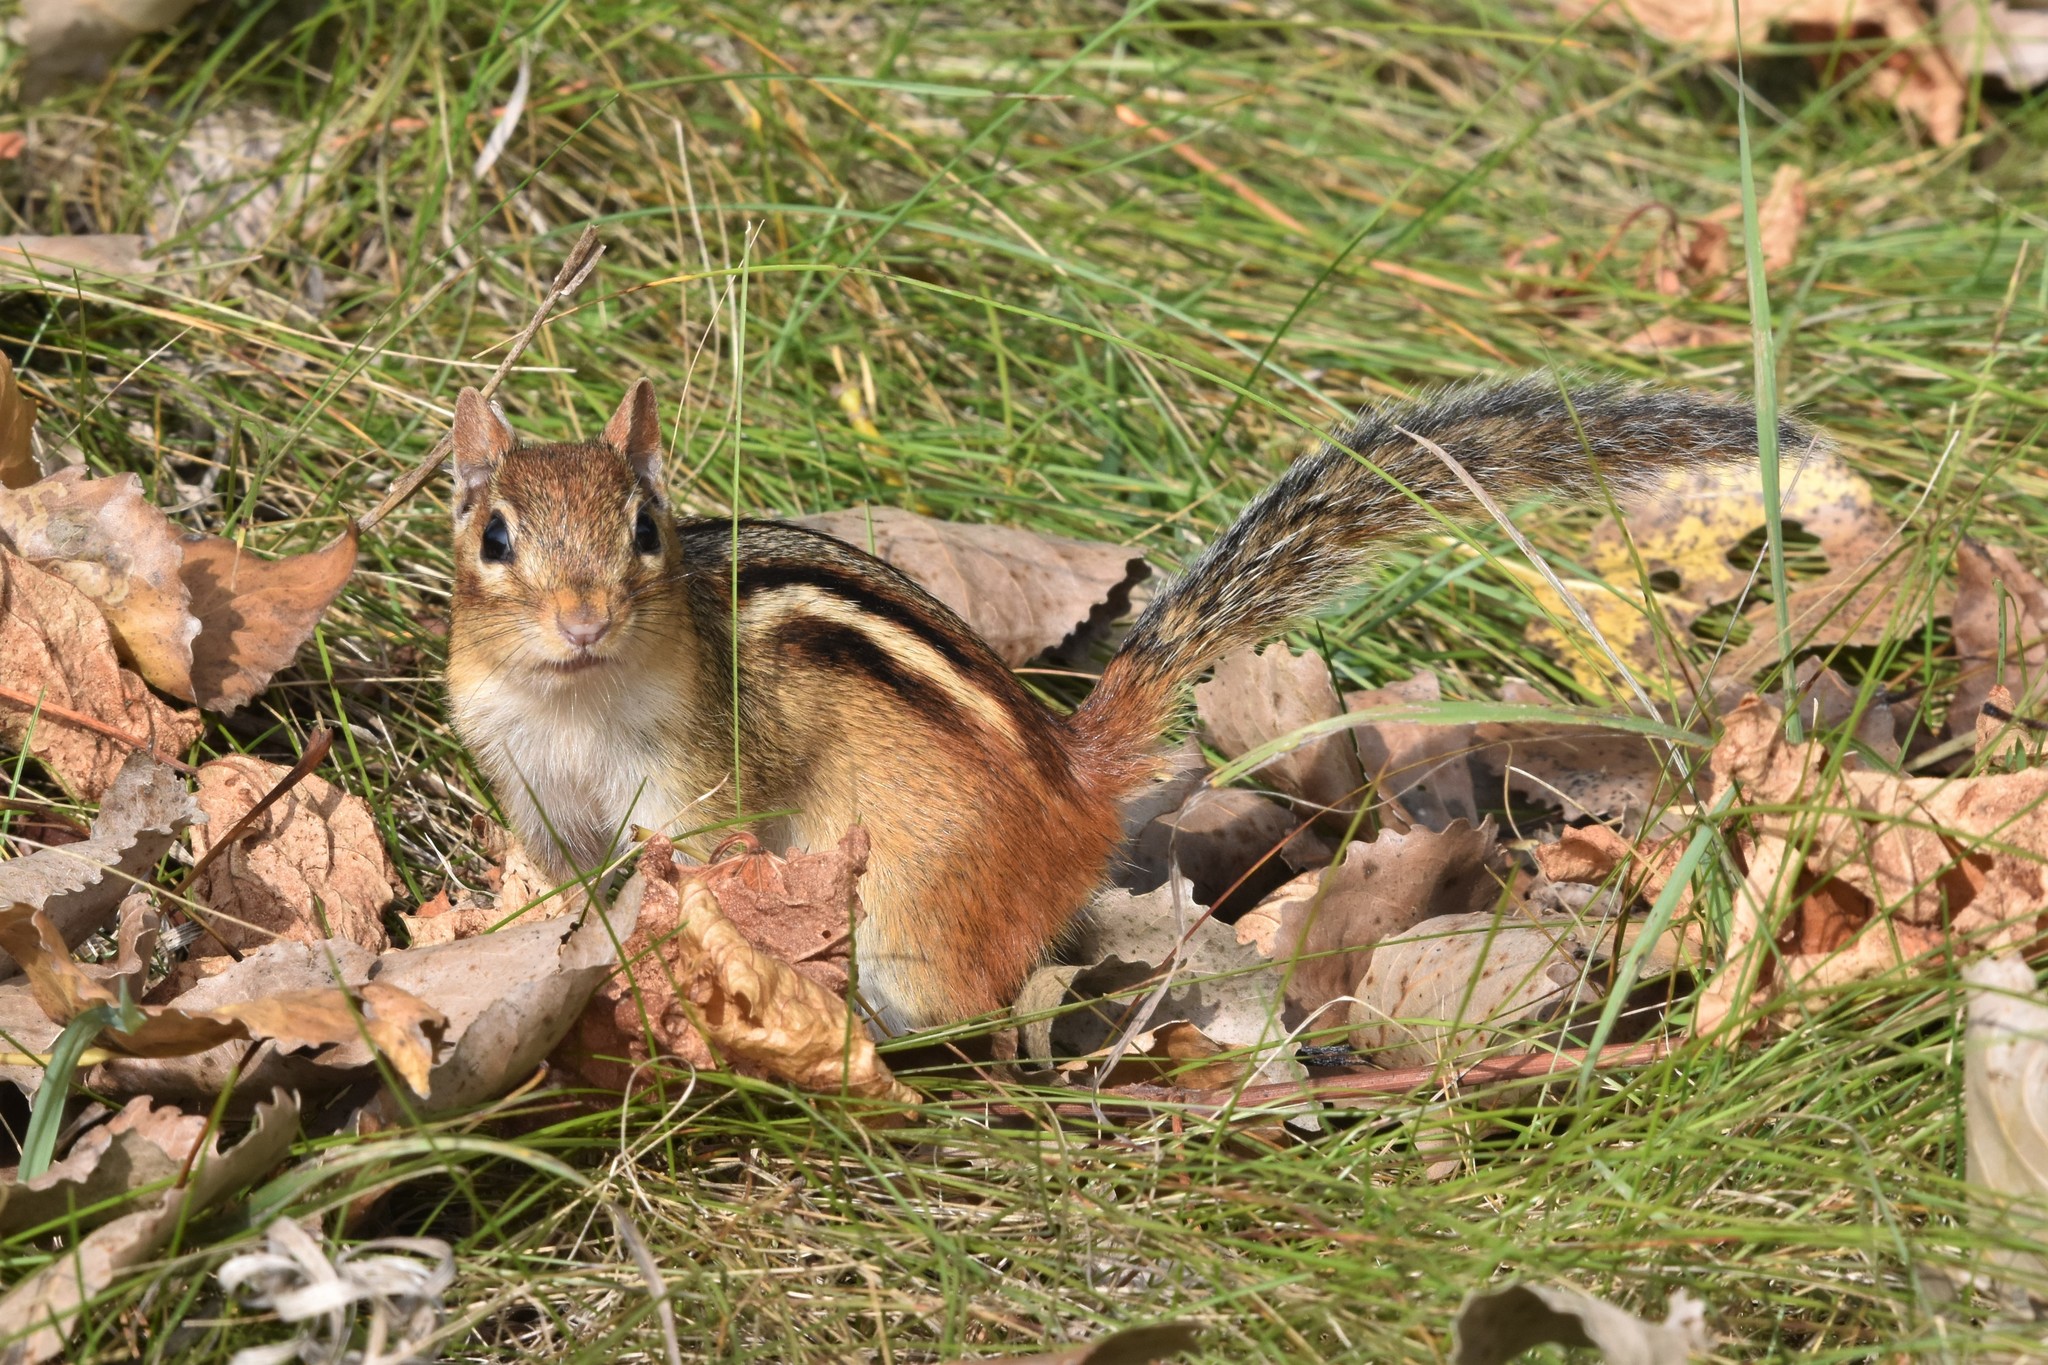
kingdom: Animalia
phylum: Chordata
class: Mammalia
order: Rodentia
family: Sciuridae
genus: Tamias
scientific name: Tamias striatus
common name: Eastern chipmunk
